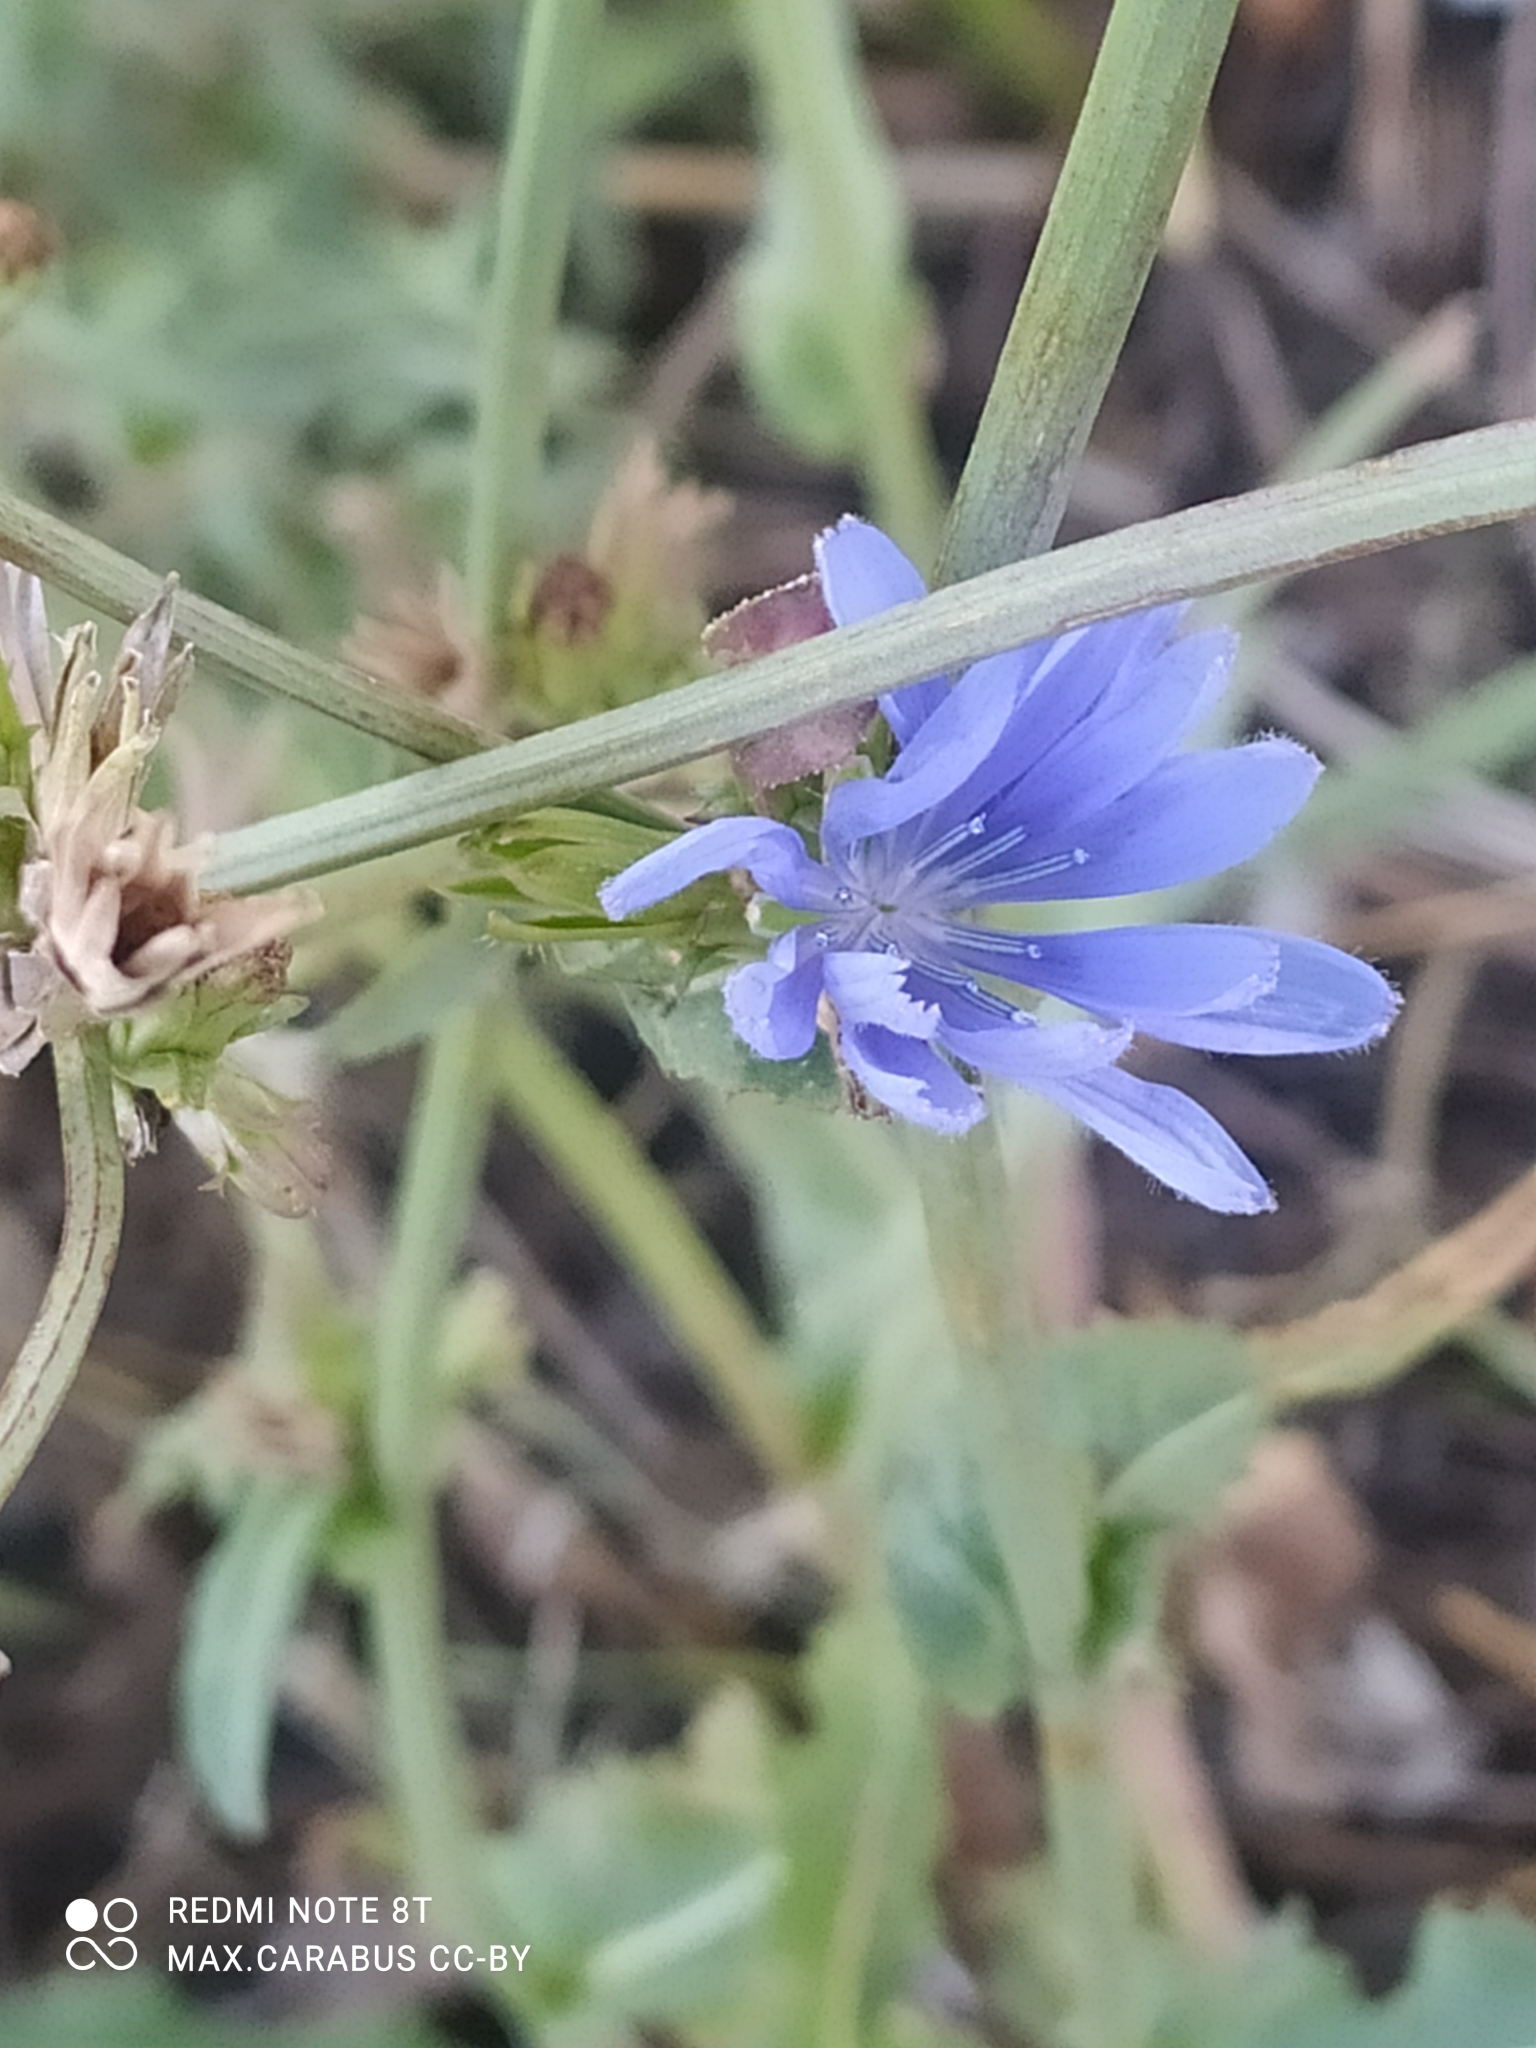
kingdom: Plantae
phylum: Tracheophyta
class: Magnoliopsida
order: Asterales
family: Asteraceae
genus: Cichorium
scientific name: Cichorium intybus
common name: Chicory
